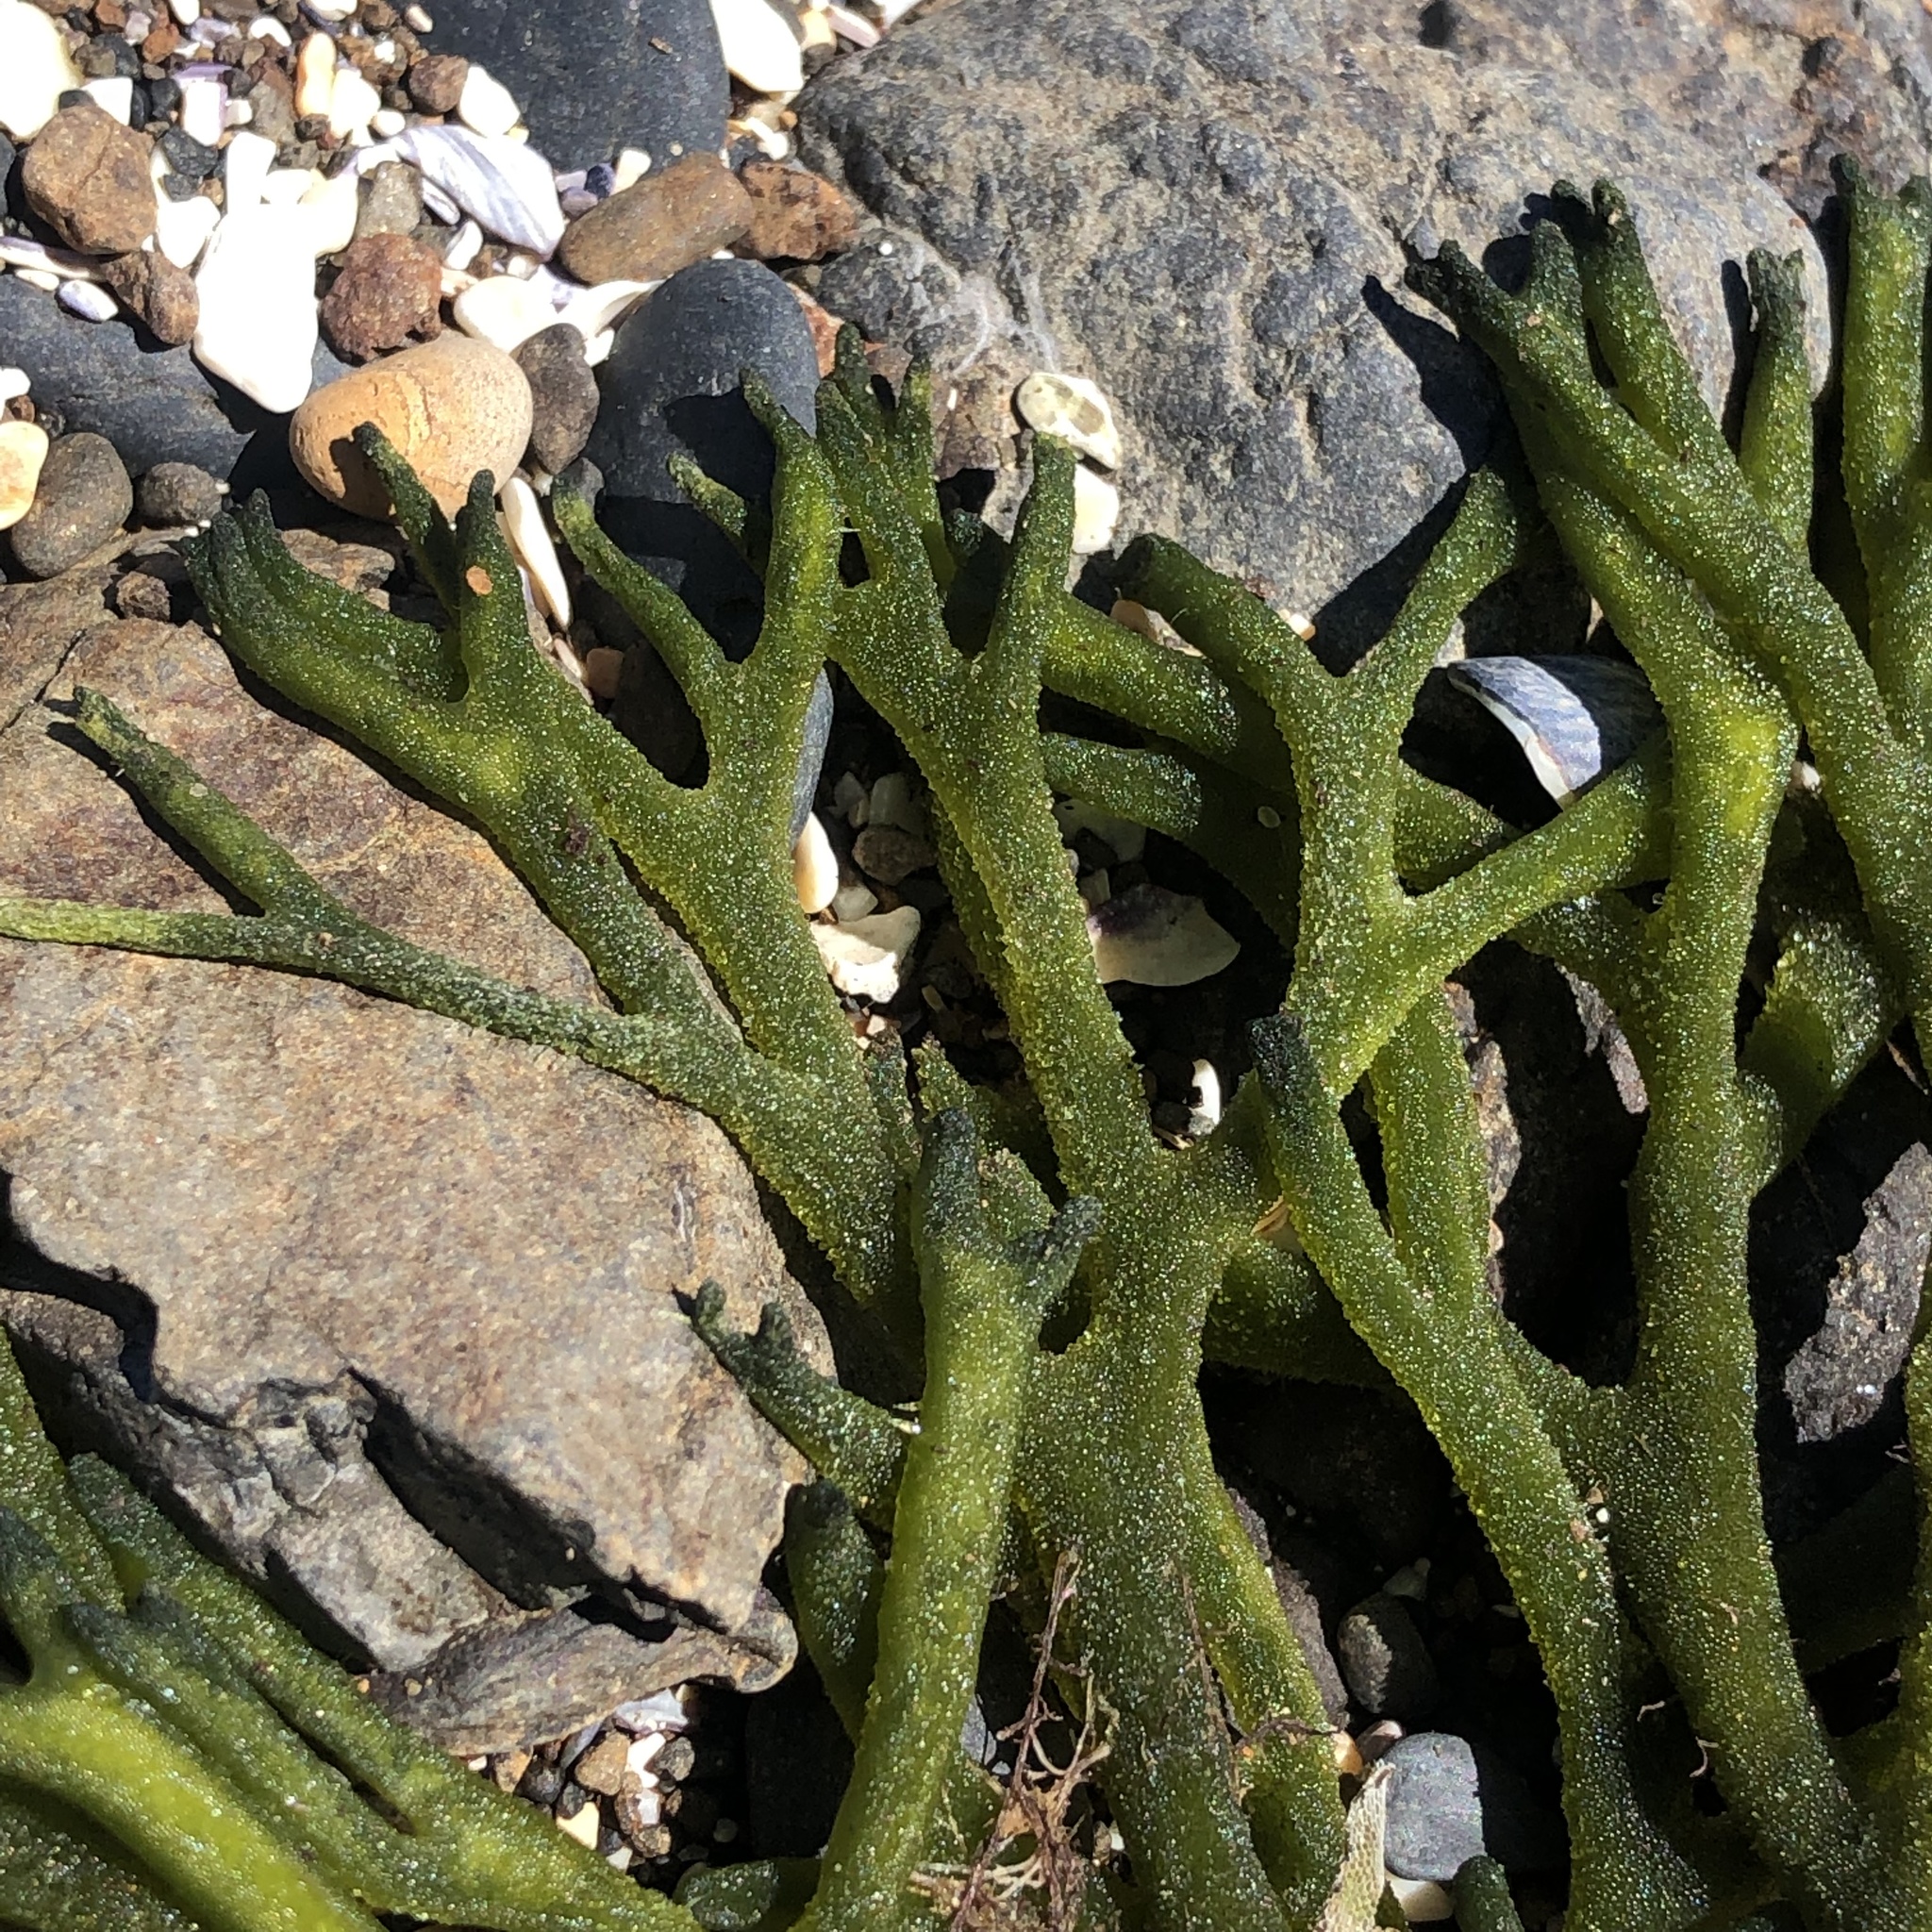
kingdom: Plantae
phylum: Chlorophyta
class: Ulvophyceae
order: Bryopsidales
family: Codiaceae
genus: Codium
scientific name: Codium fragile
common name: Dead man's fingers
